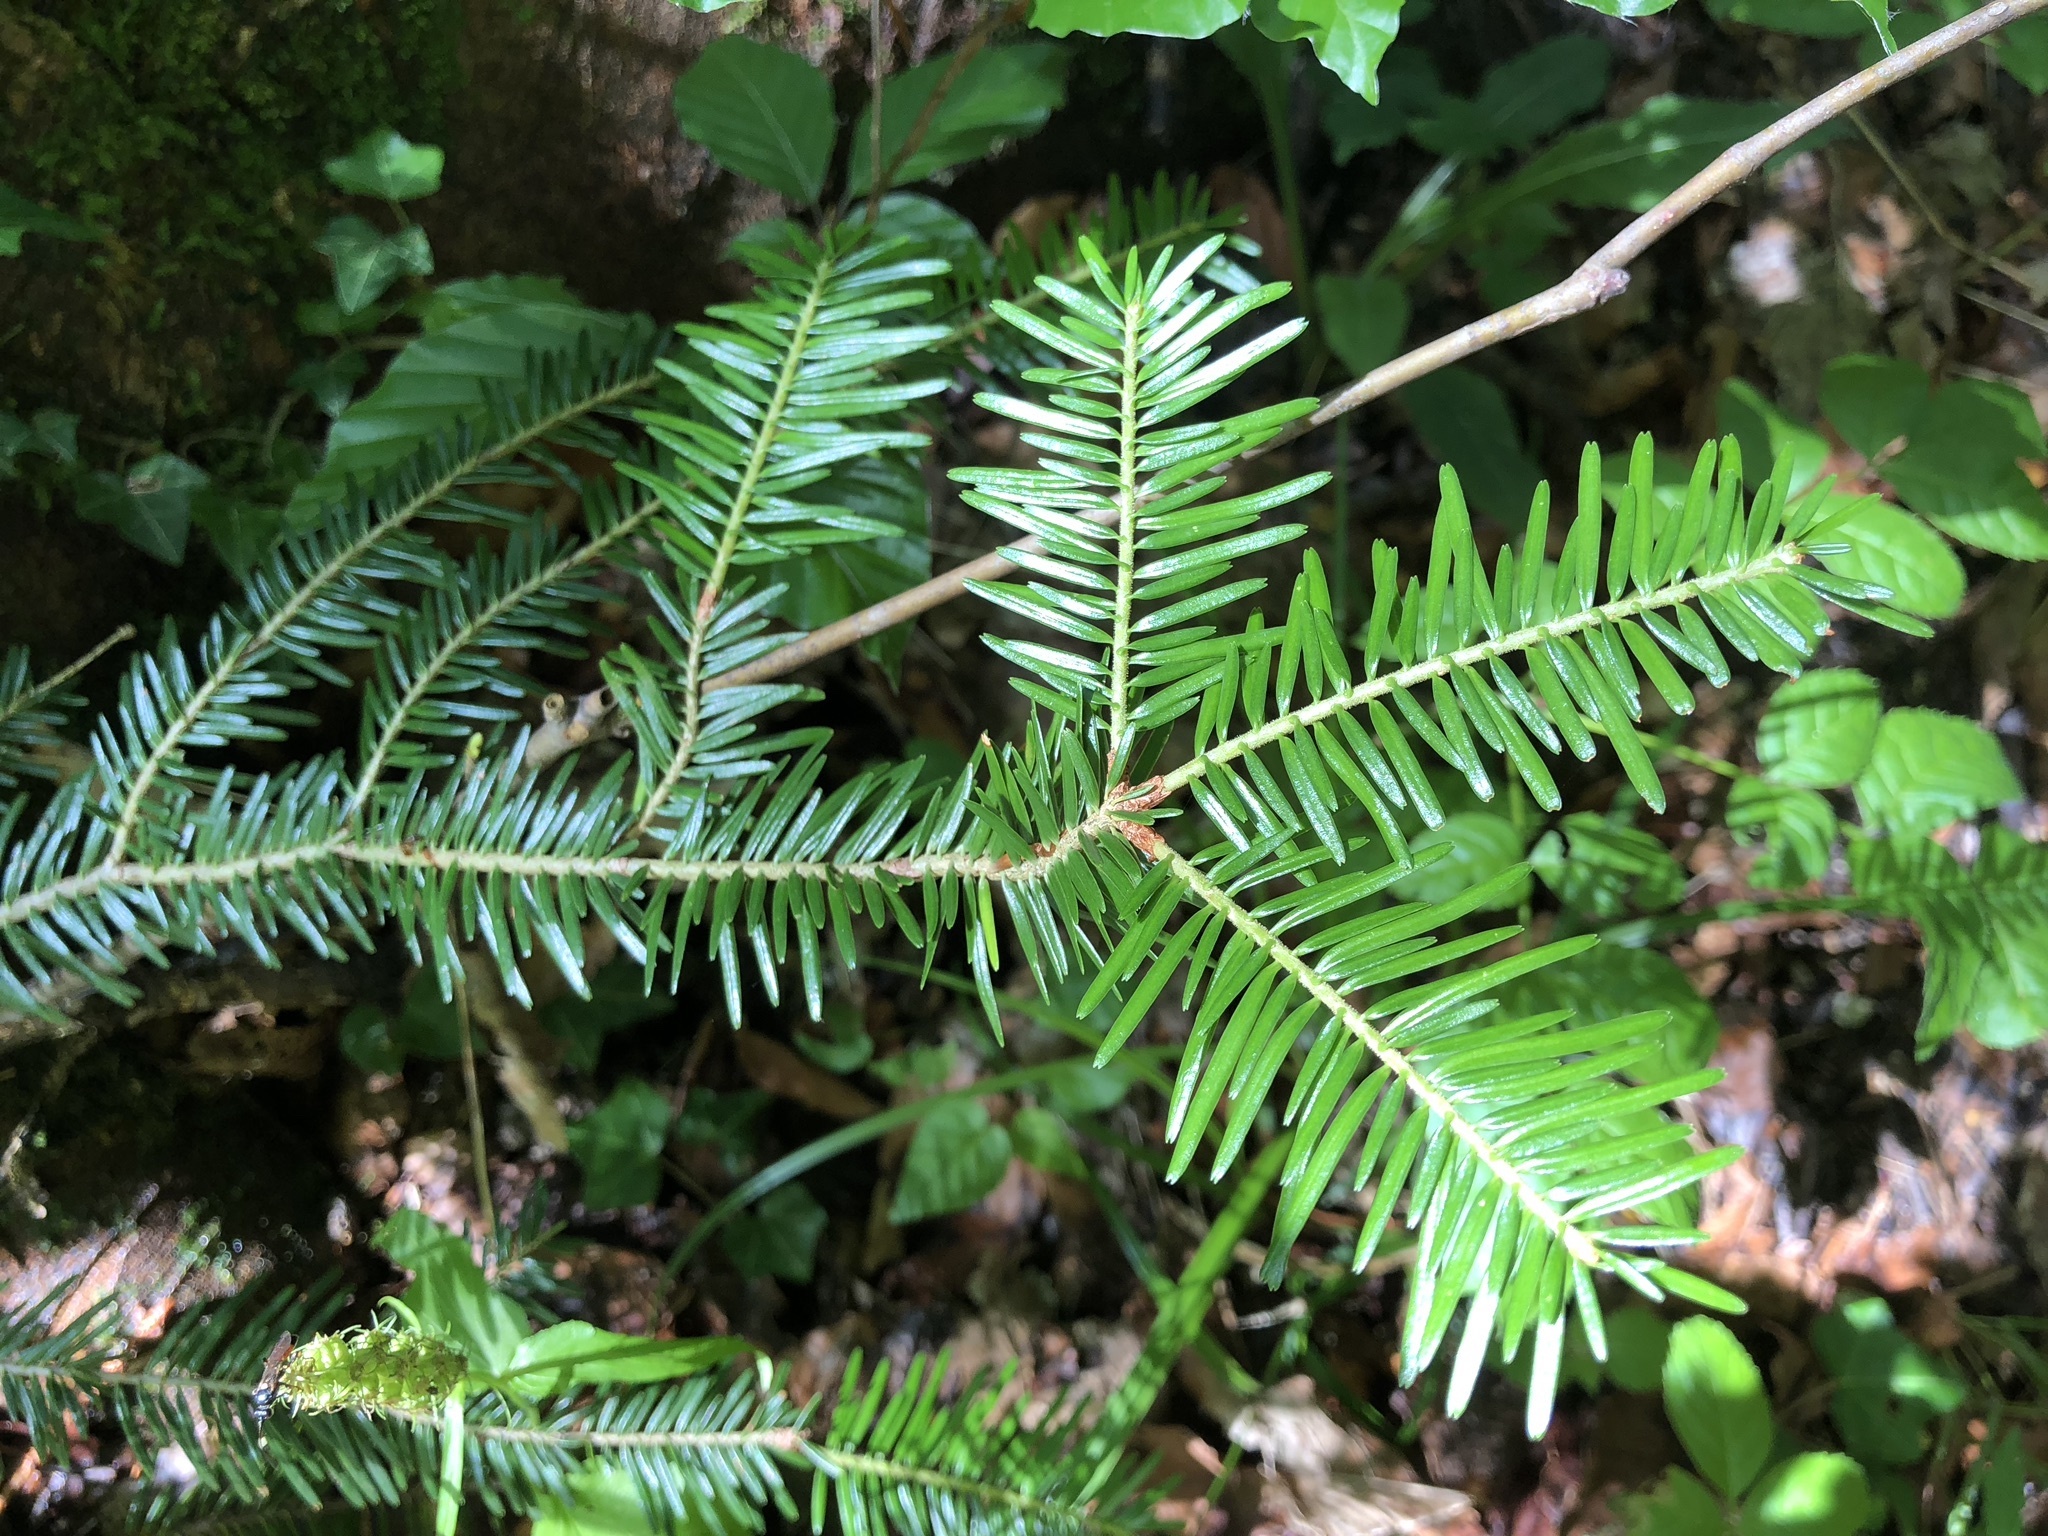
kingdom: Plantae
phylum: Tracheophyta
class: Pinopsida
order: Pinales
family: Pinaceae
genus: Abies
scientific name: Abies alba
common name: Silver fir
